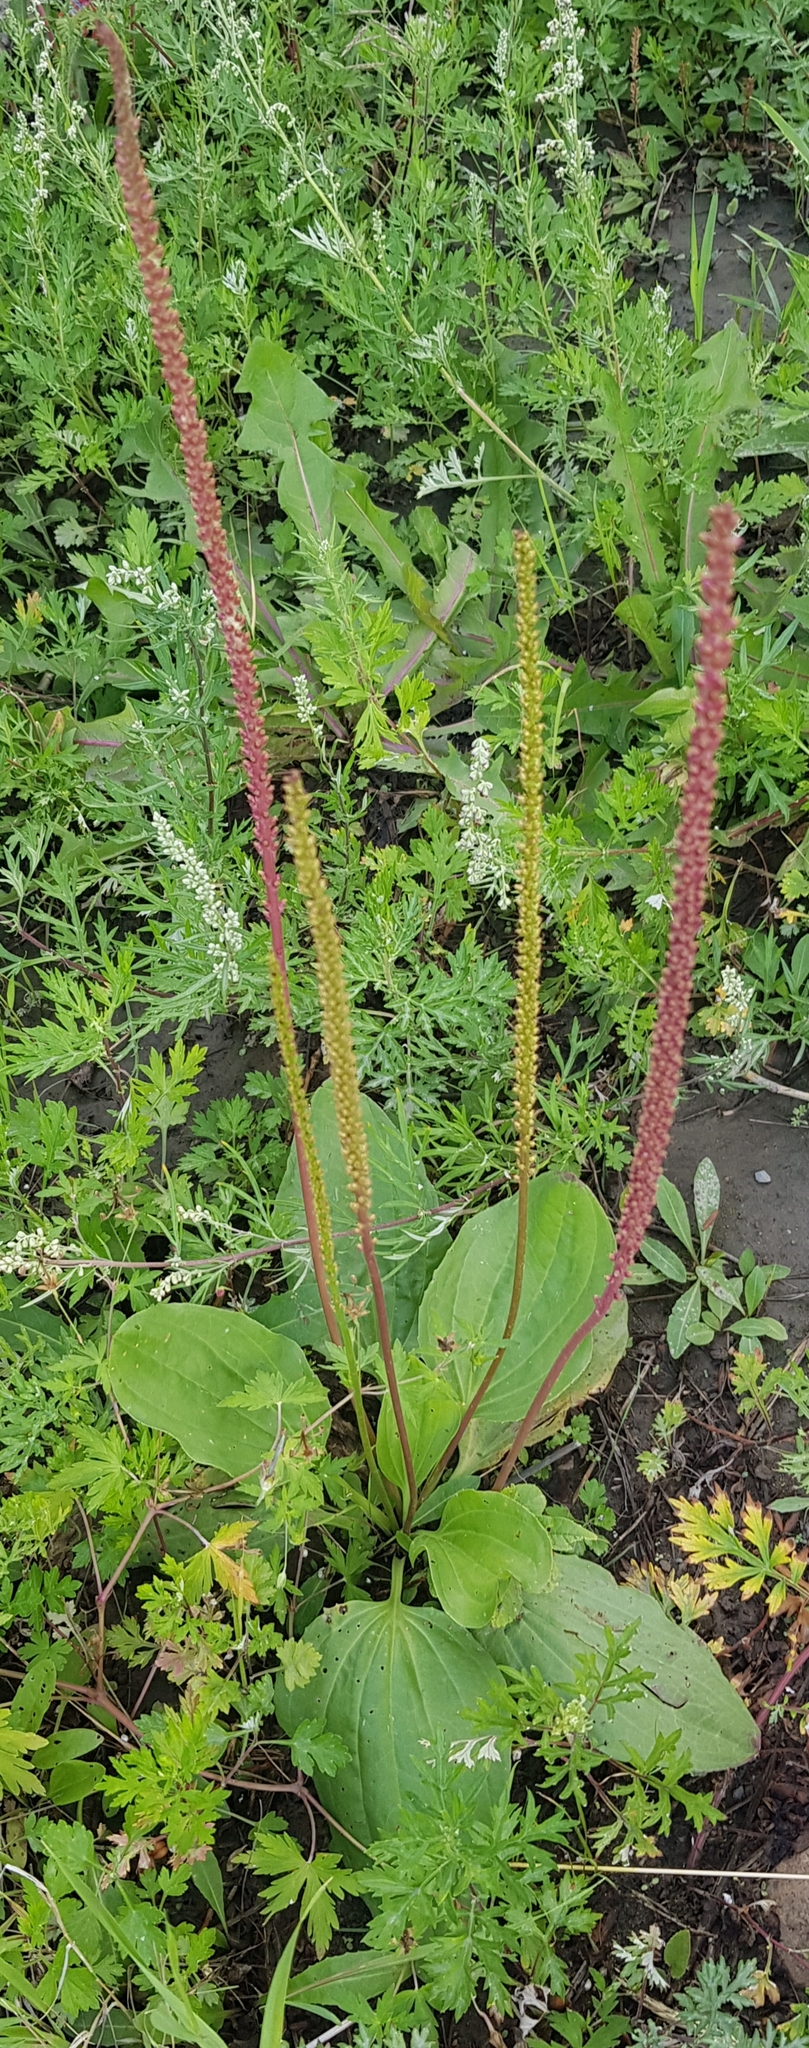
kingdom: Plantae
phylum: Tracheophyta
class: Magnoliopsida
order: Lamiales
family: Plantaginaceae
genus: Plantago
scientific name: Plantago major
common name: Common plantain
